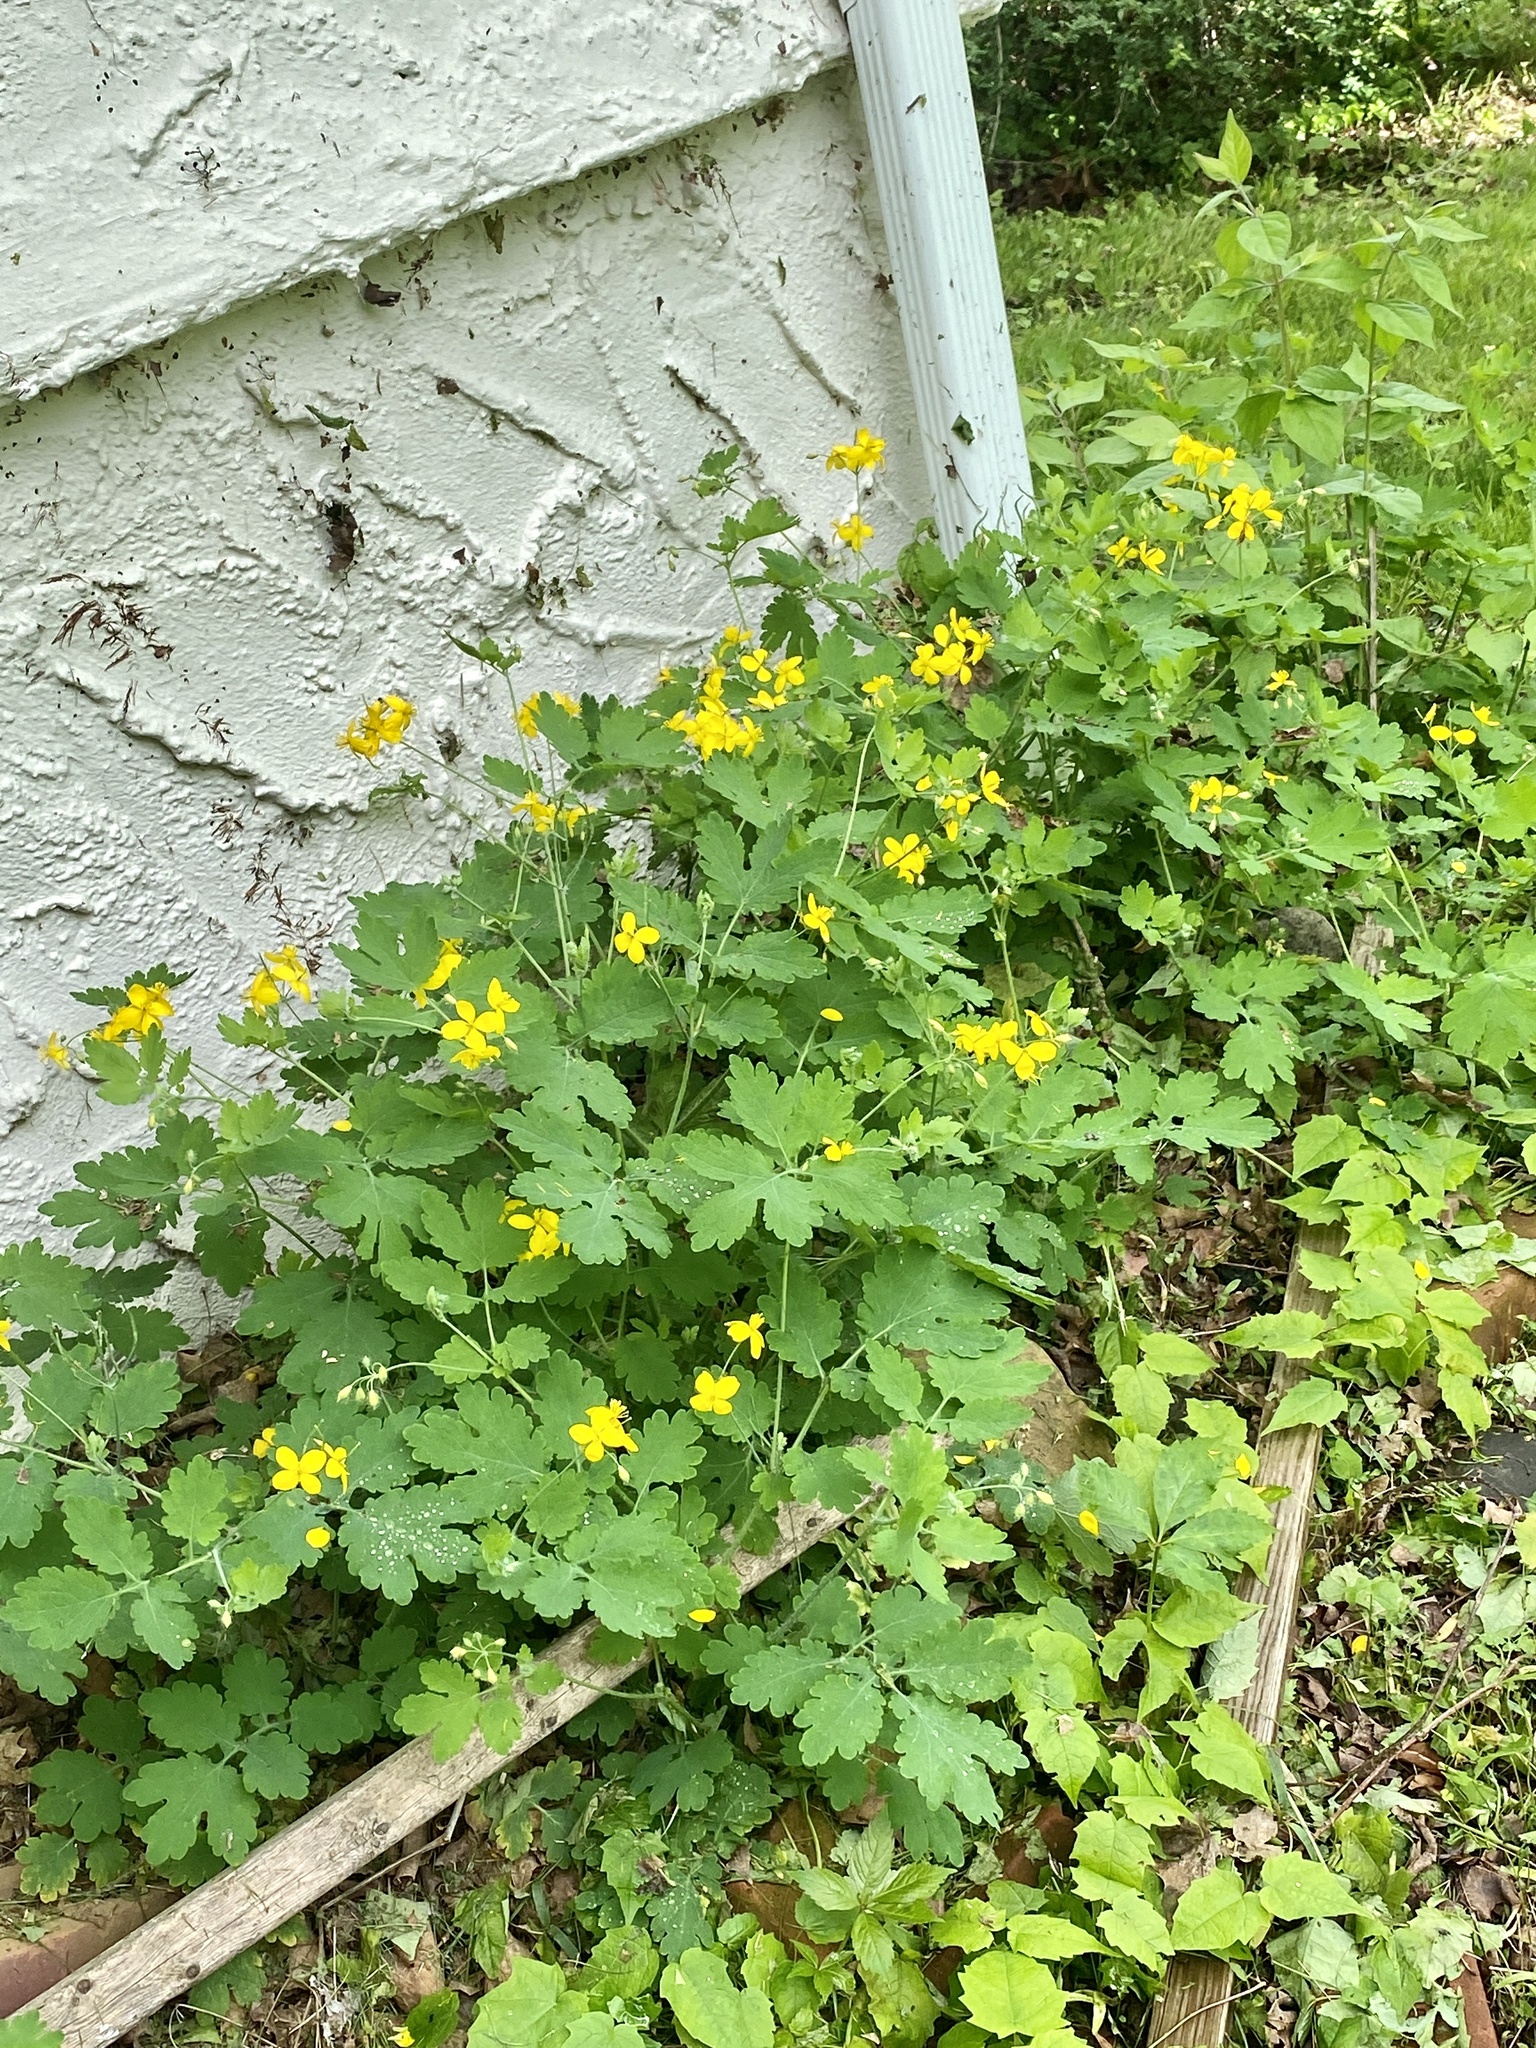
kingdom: Plantae
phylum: Tracheophyta
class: Magnoliopsida
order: Ranunculales
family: Papaveraceae
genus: Chelidonium
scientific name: Chelidonium majus
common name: Greater celandine
